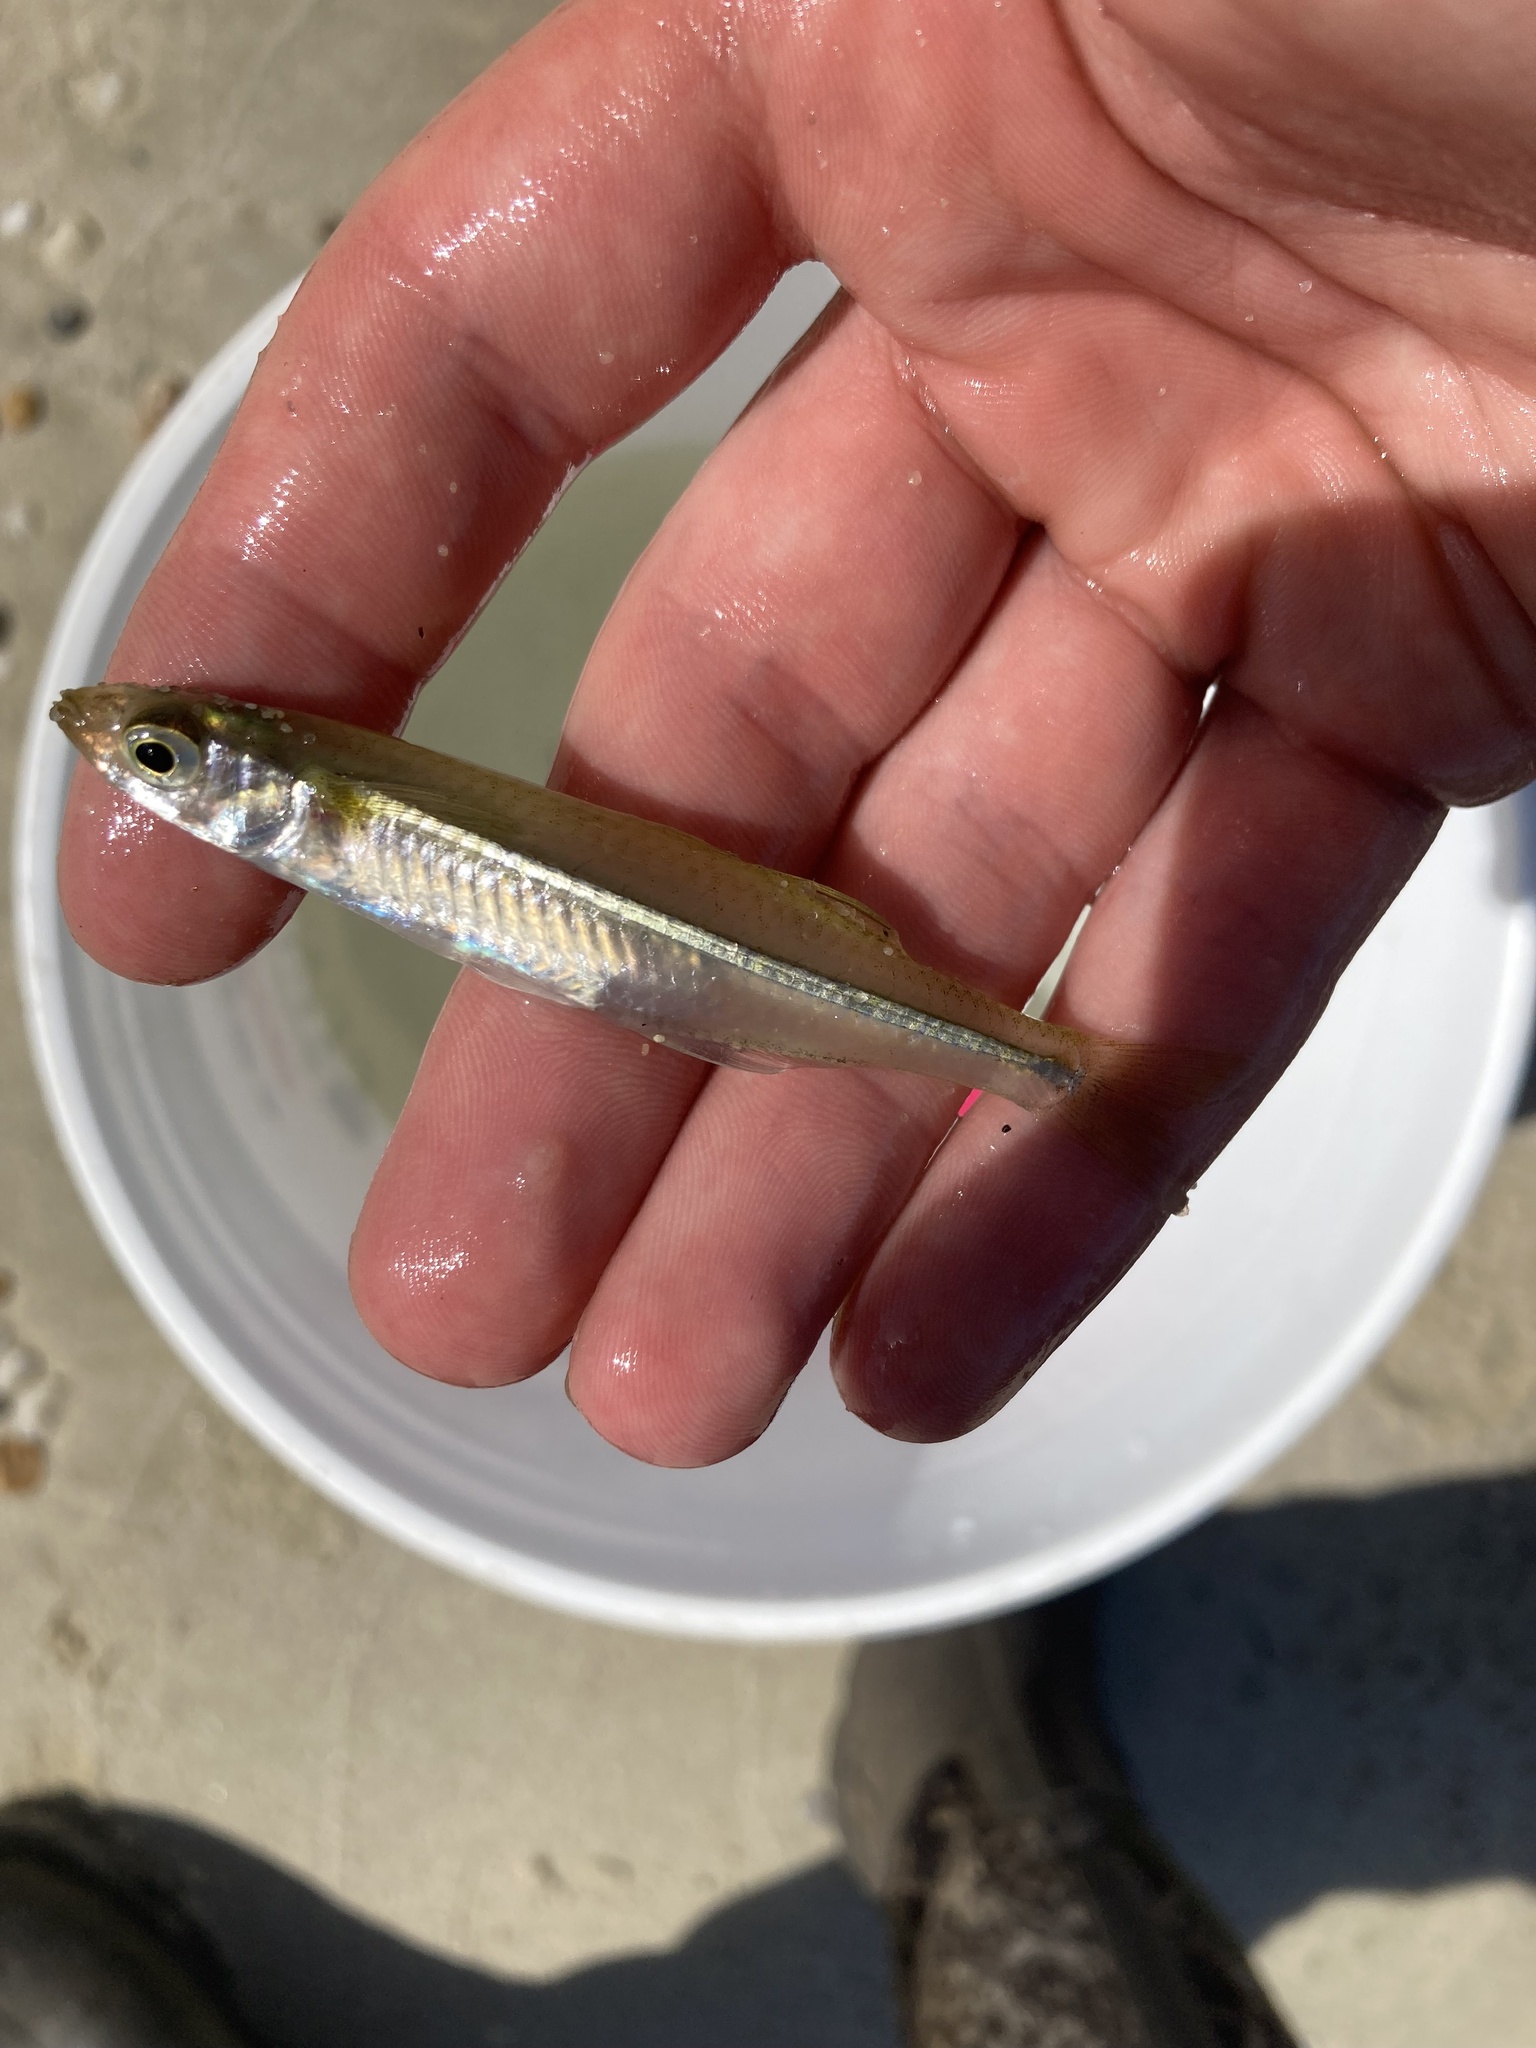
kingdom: Animalia
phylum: Chordata
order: Atheriniformes
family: Atherinopsidae
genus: Menidia
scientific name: Menidia beryllina
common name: Inland silverside
